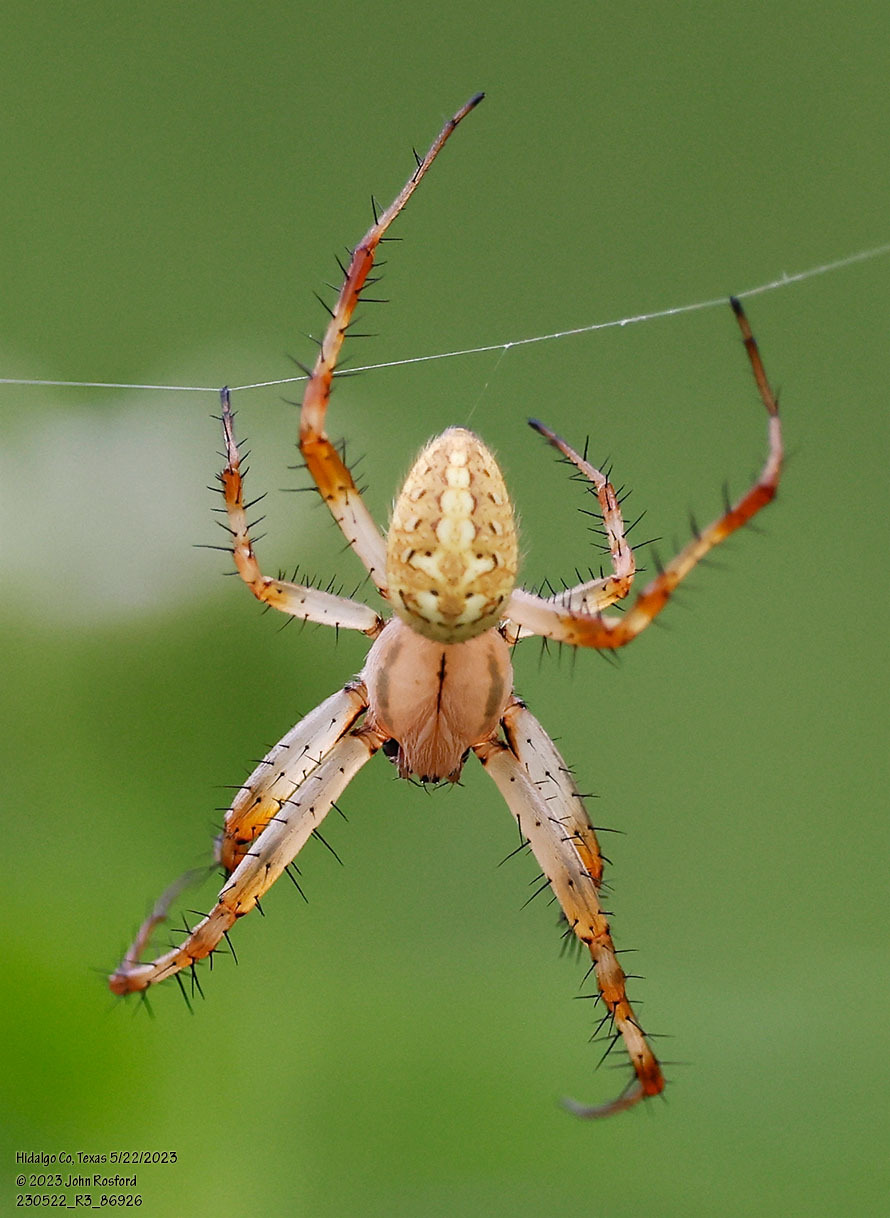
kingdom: Animalia
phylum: Arthropoda
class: Arachnida
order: Araneae
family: Araneidae
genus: Neoscona
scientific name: Neoscona oaxacensis
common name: Orb weavers
